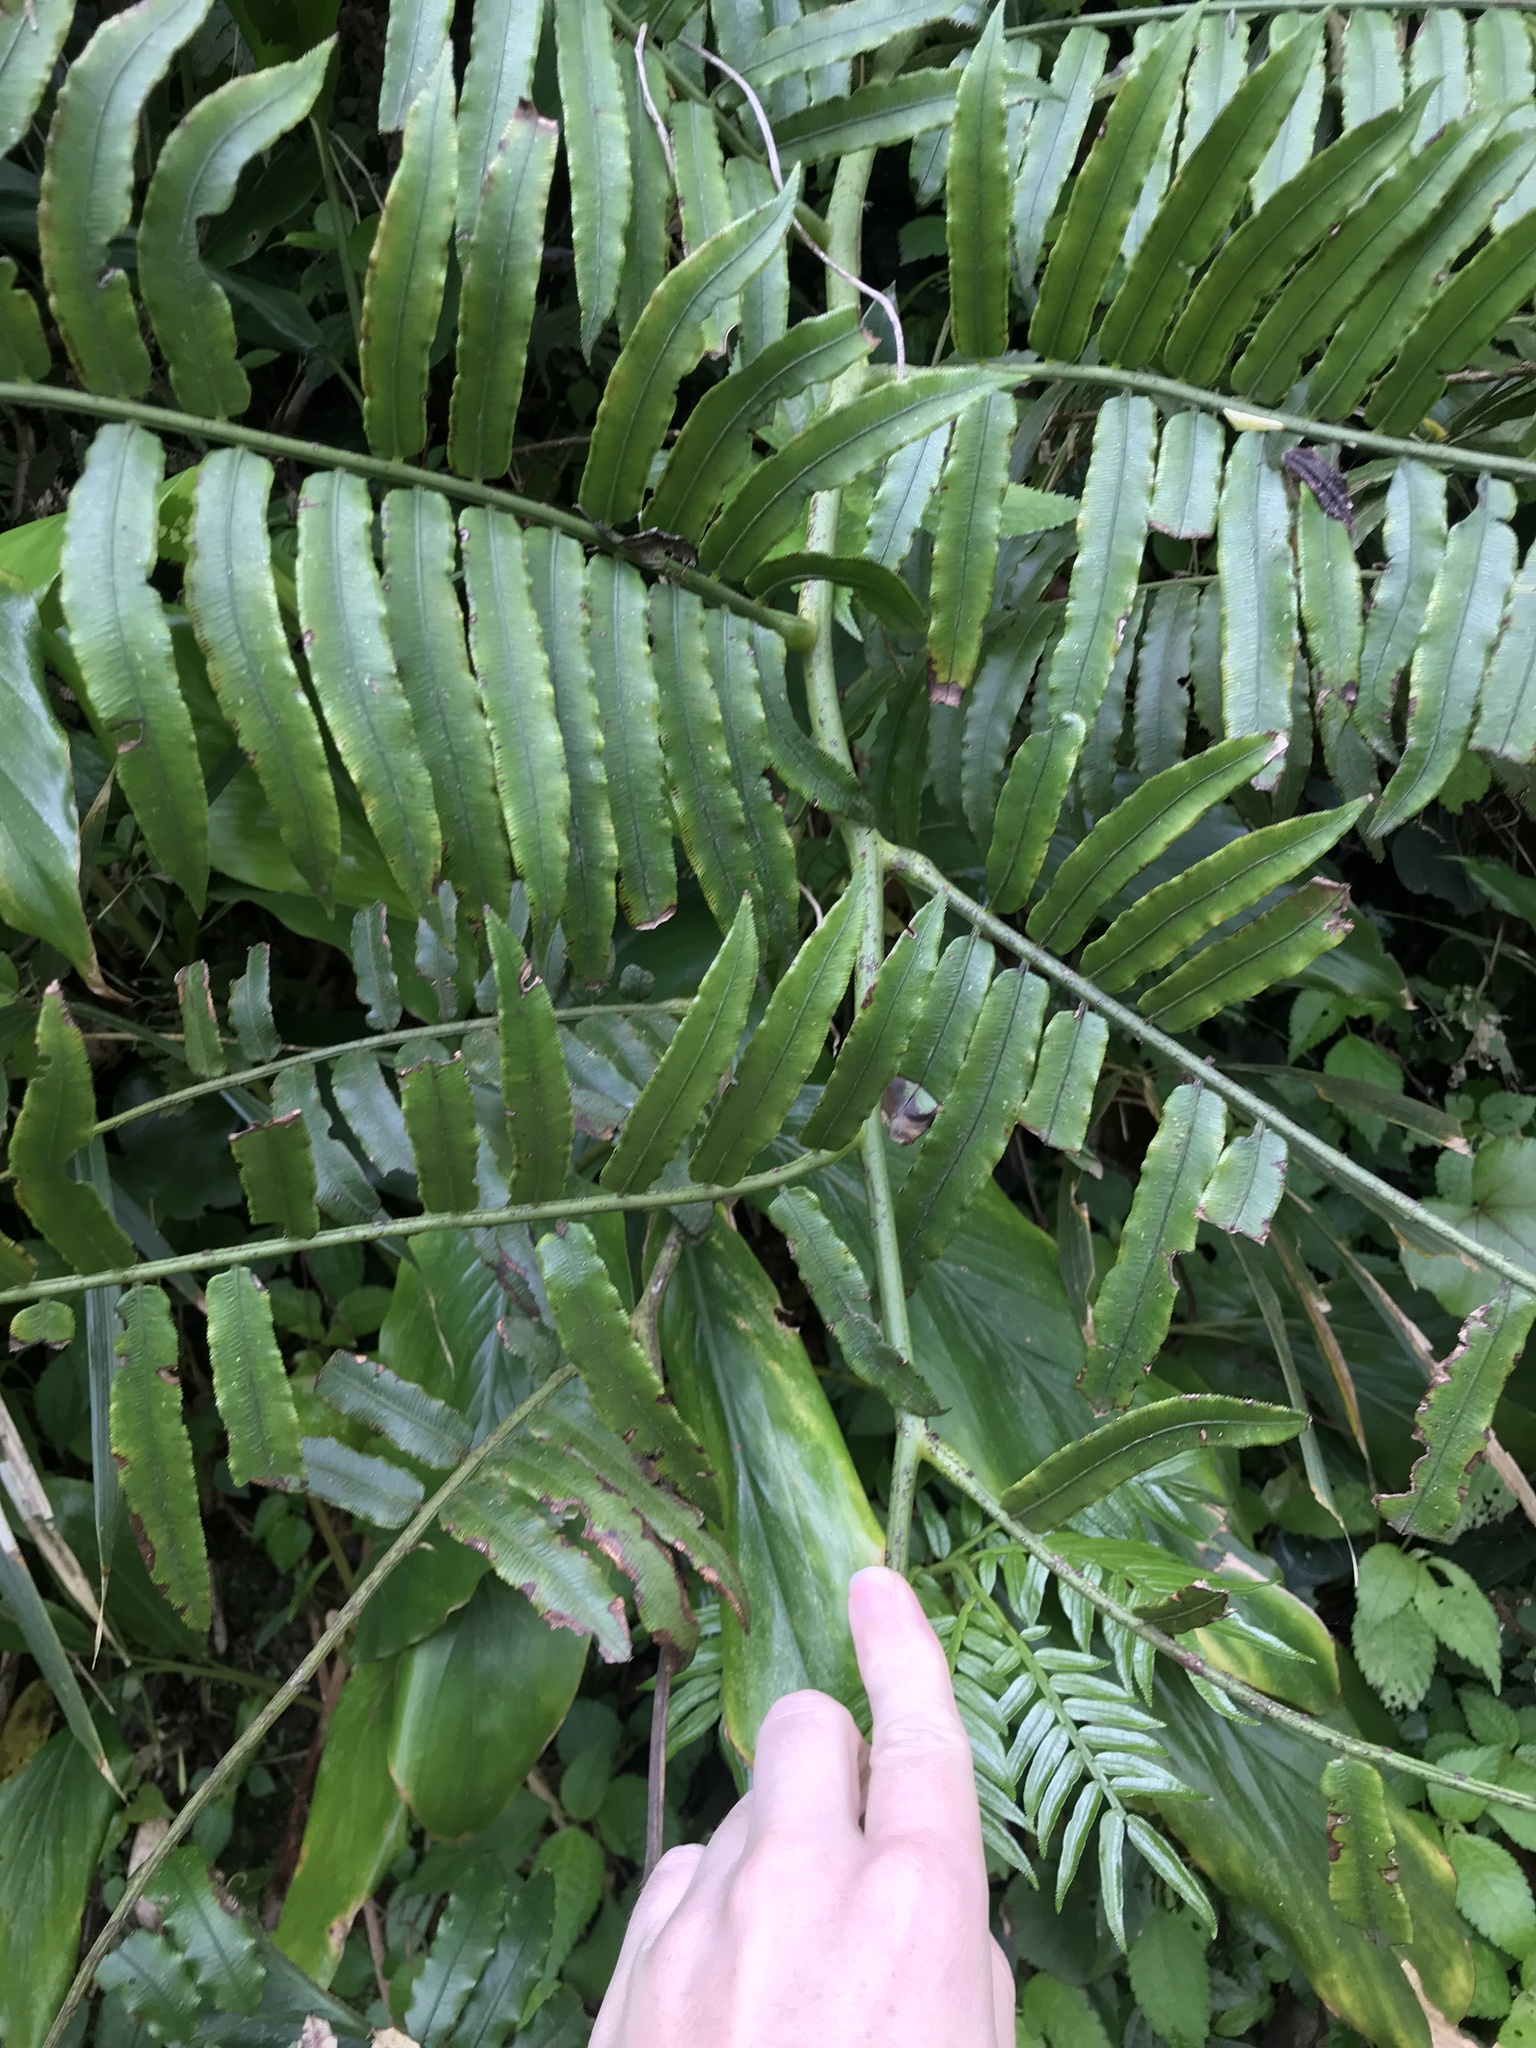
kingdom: Plantae
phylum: Tracheophyta
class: Polypodiopsida
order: Marattiales
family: Marattiaceae
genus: Angiopteris
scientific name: Angiopteris lygodiifolia
